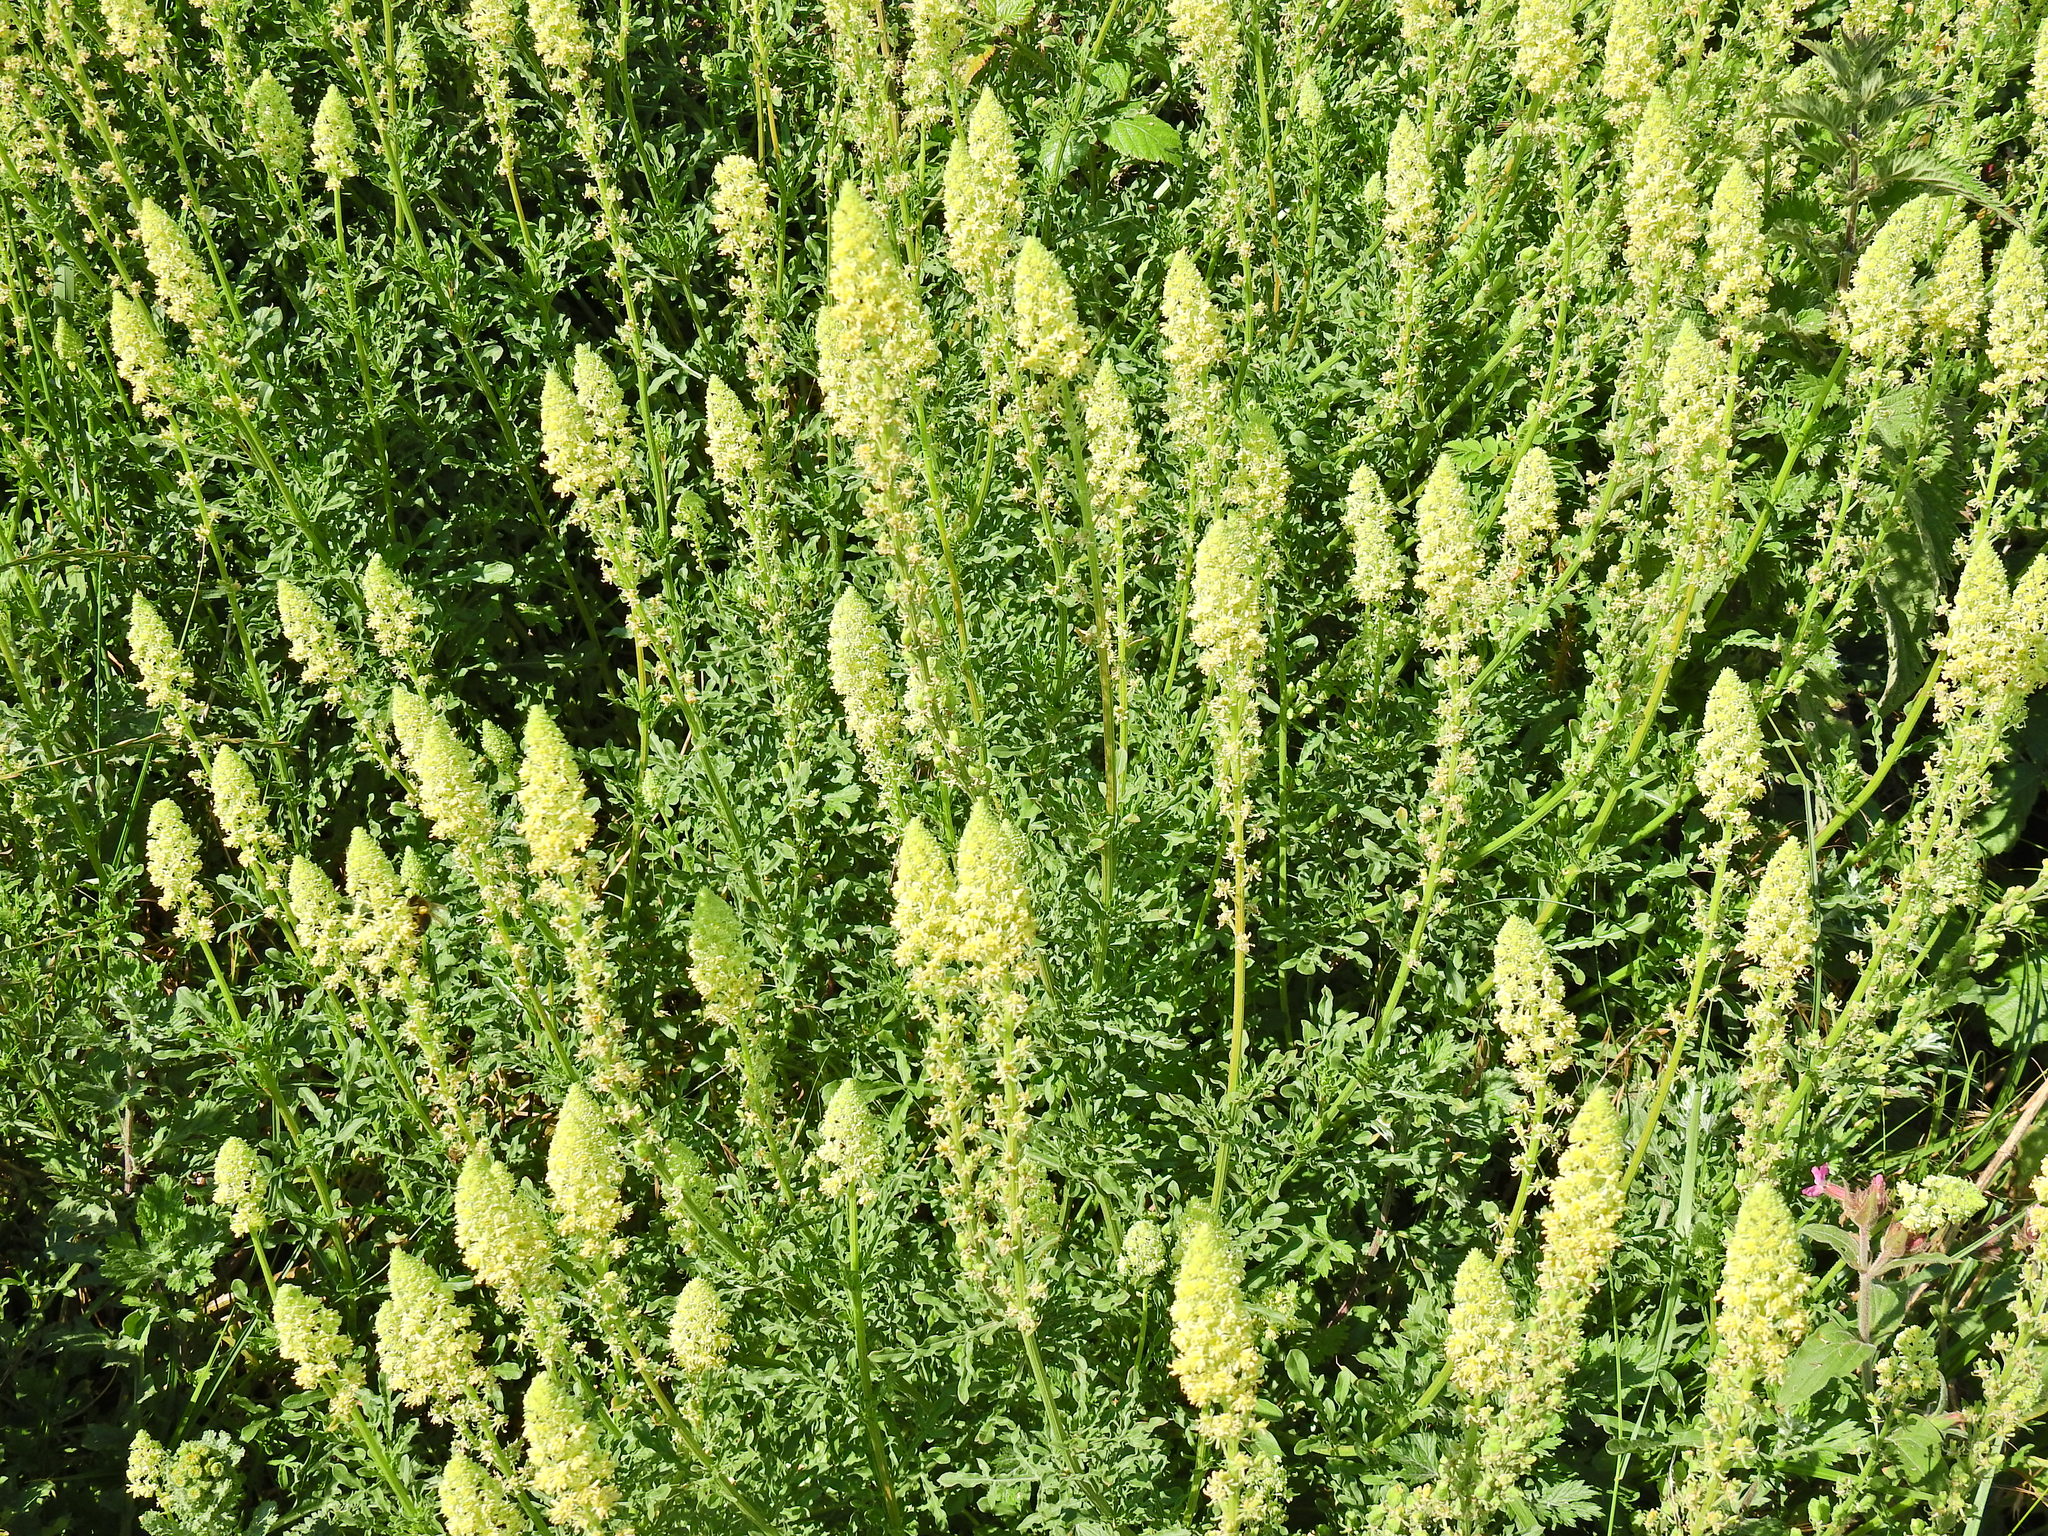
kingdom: Plantae
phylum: Tracheophyta
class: Magnoliopsida
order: Brassicales
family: Resedaceae
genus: Reseda
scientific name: Reseda lutea
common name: Wild mignonette
